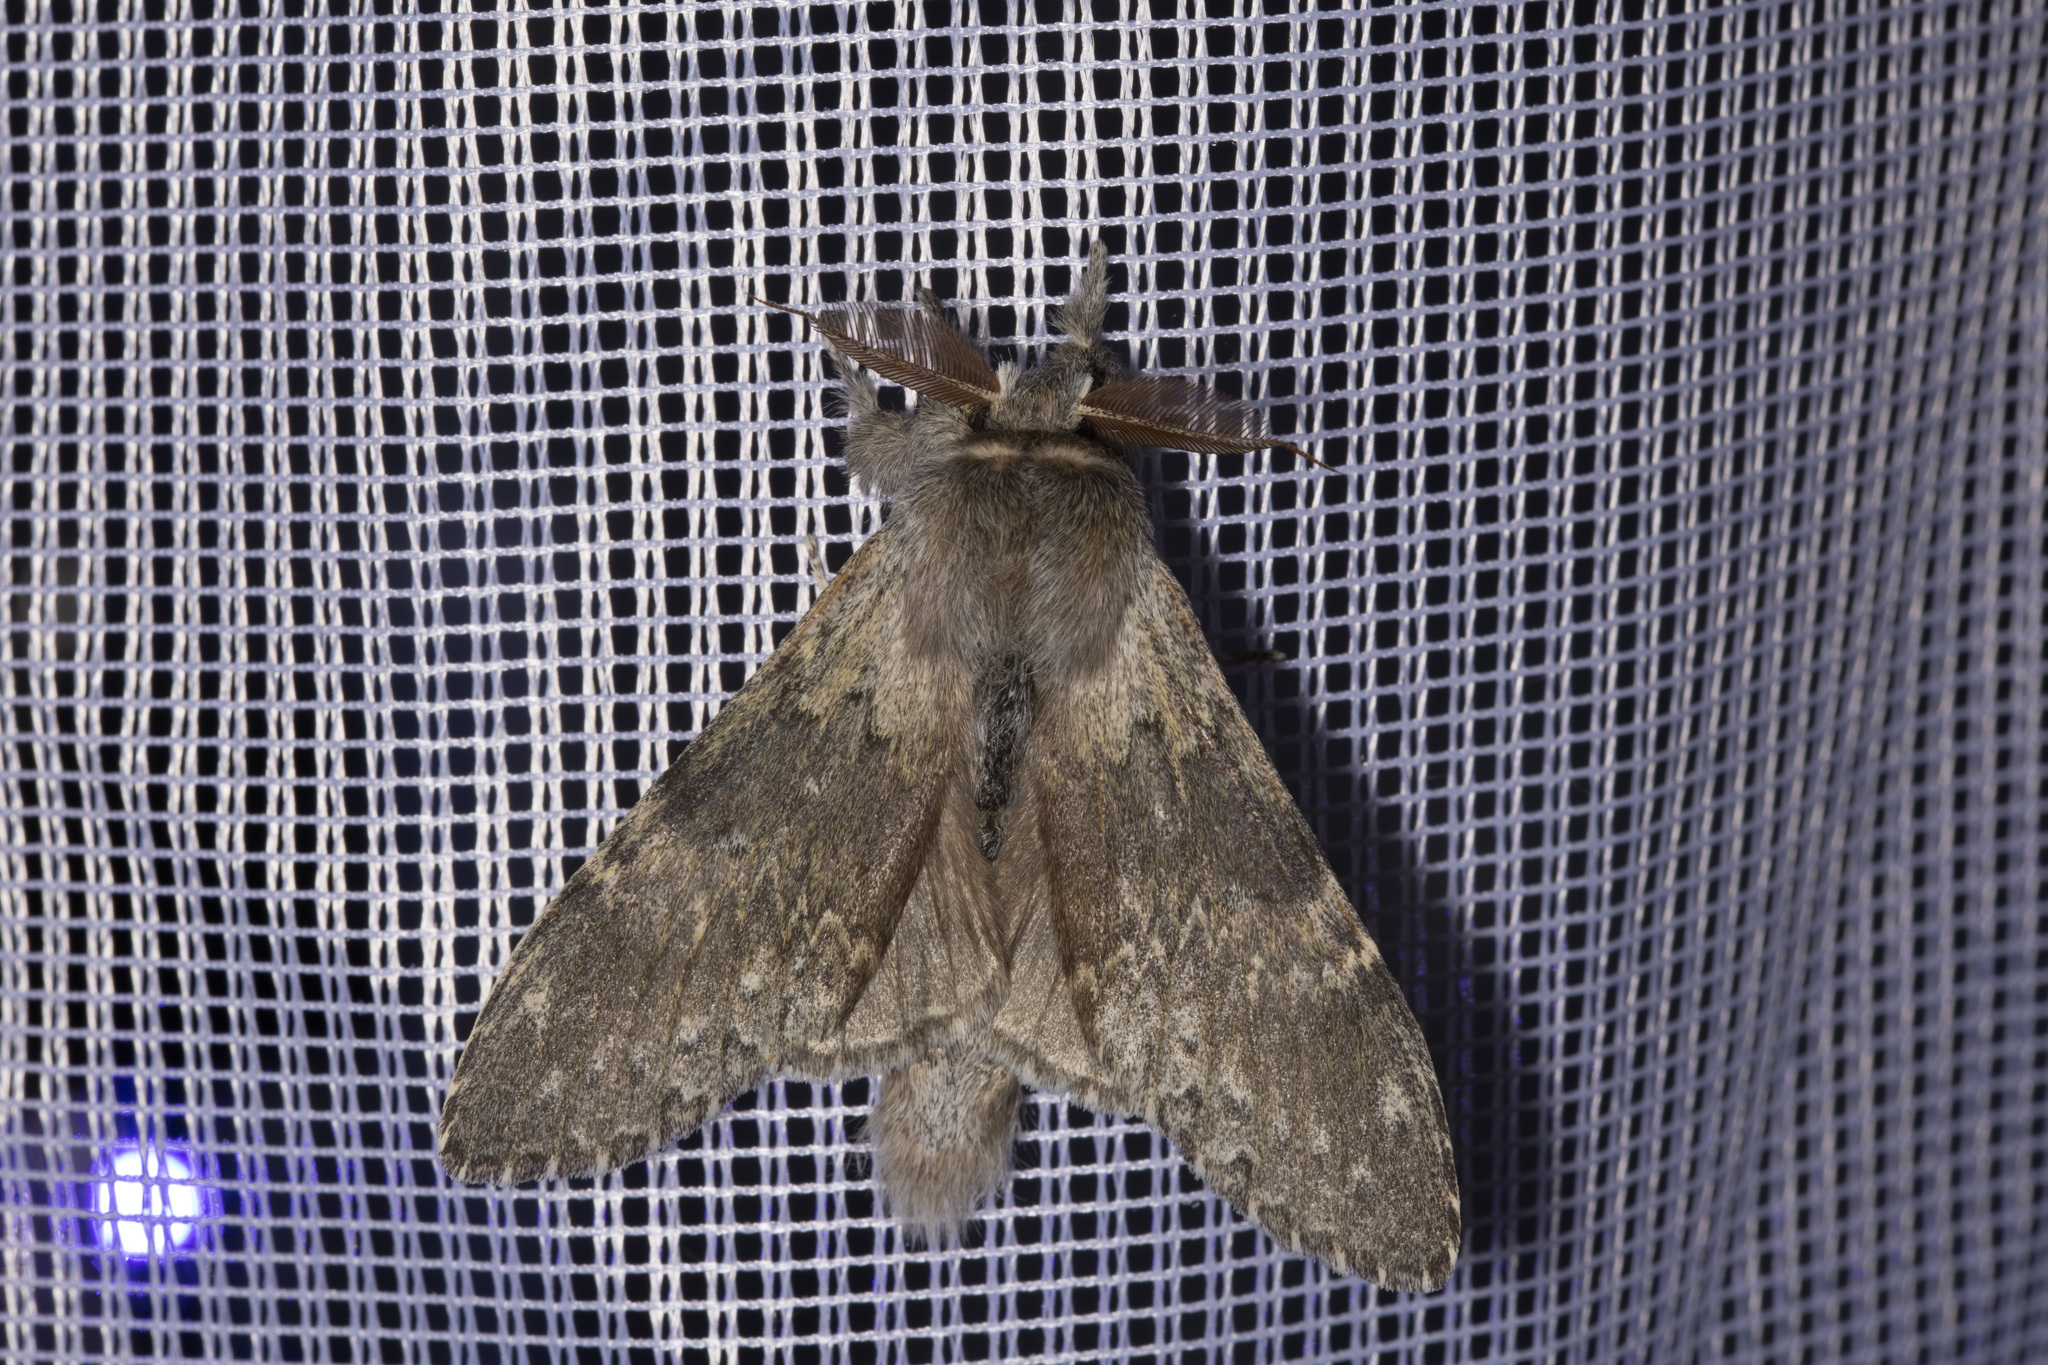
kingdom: Animalia
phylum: Arthropoda
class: Insecta
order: Lepidoptera
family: Notodontidae
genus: Stauropus
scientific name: Stauropus fagi
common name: Lobster moth
